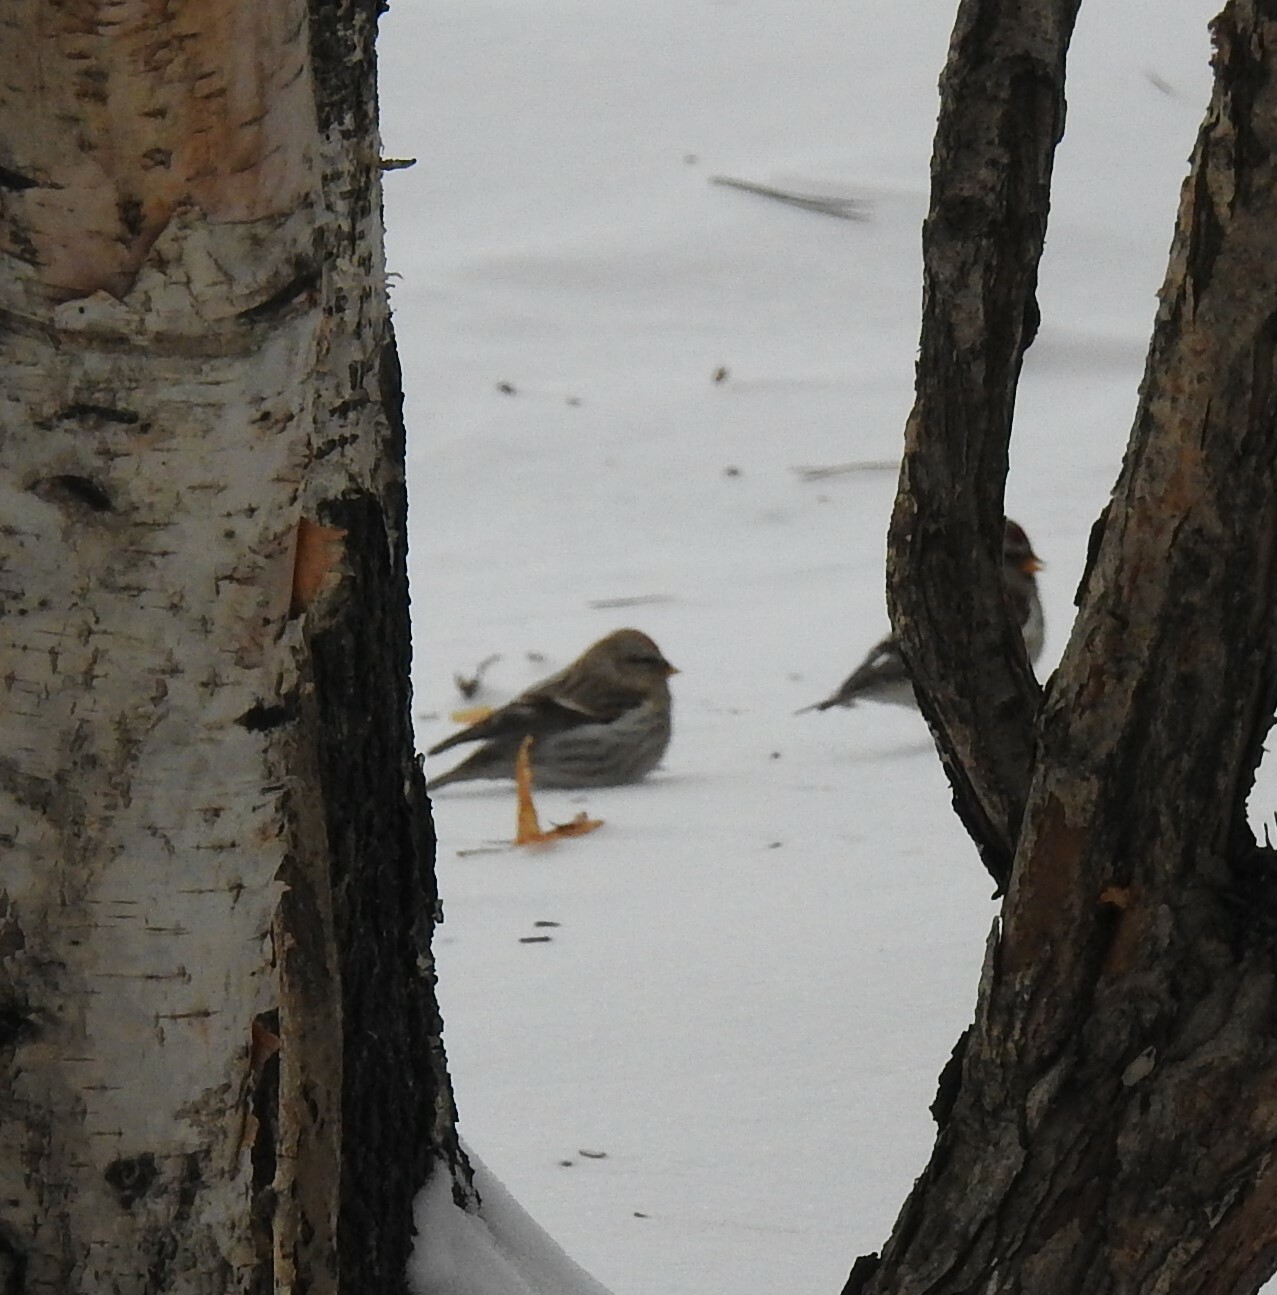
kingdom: Animalia
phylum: Chordata
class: Aves
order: Passeriformes
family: Fringillidae
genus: Acanthis
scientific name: Acanthis flammea
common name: Common redpoll
